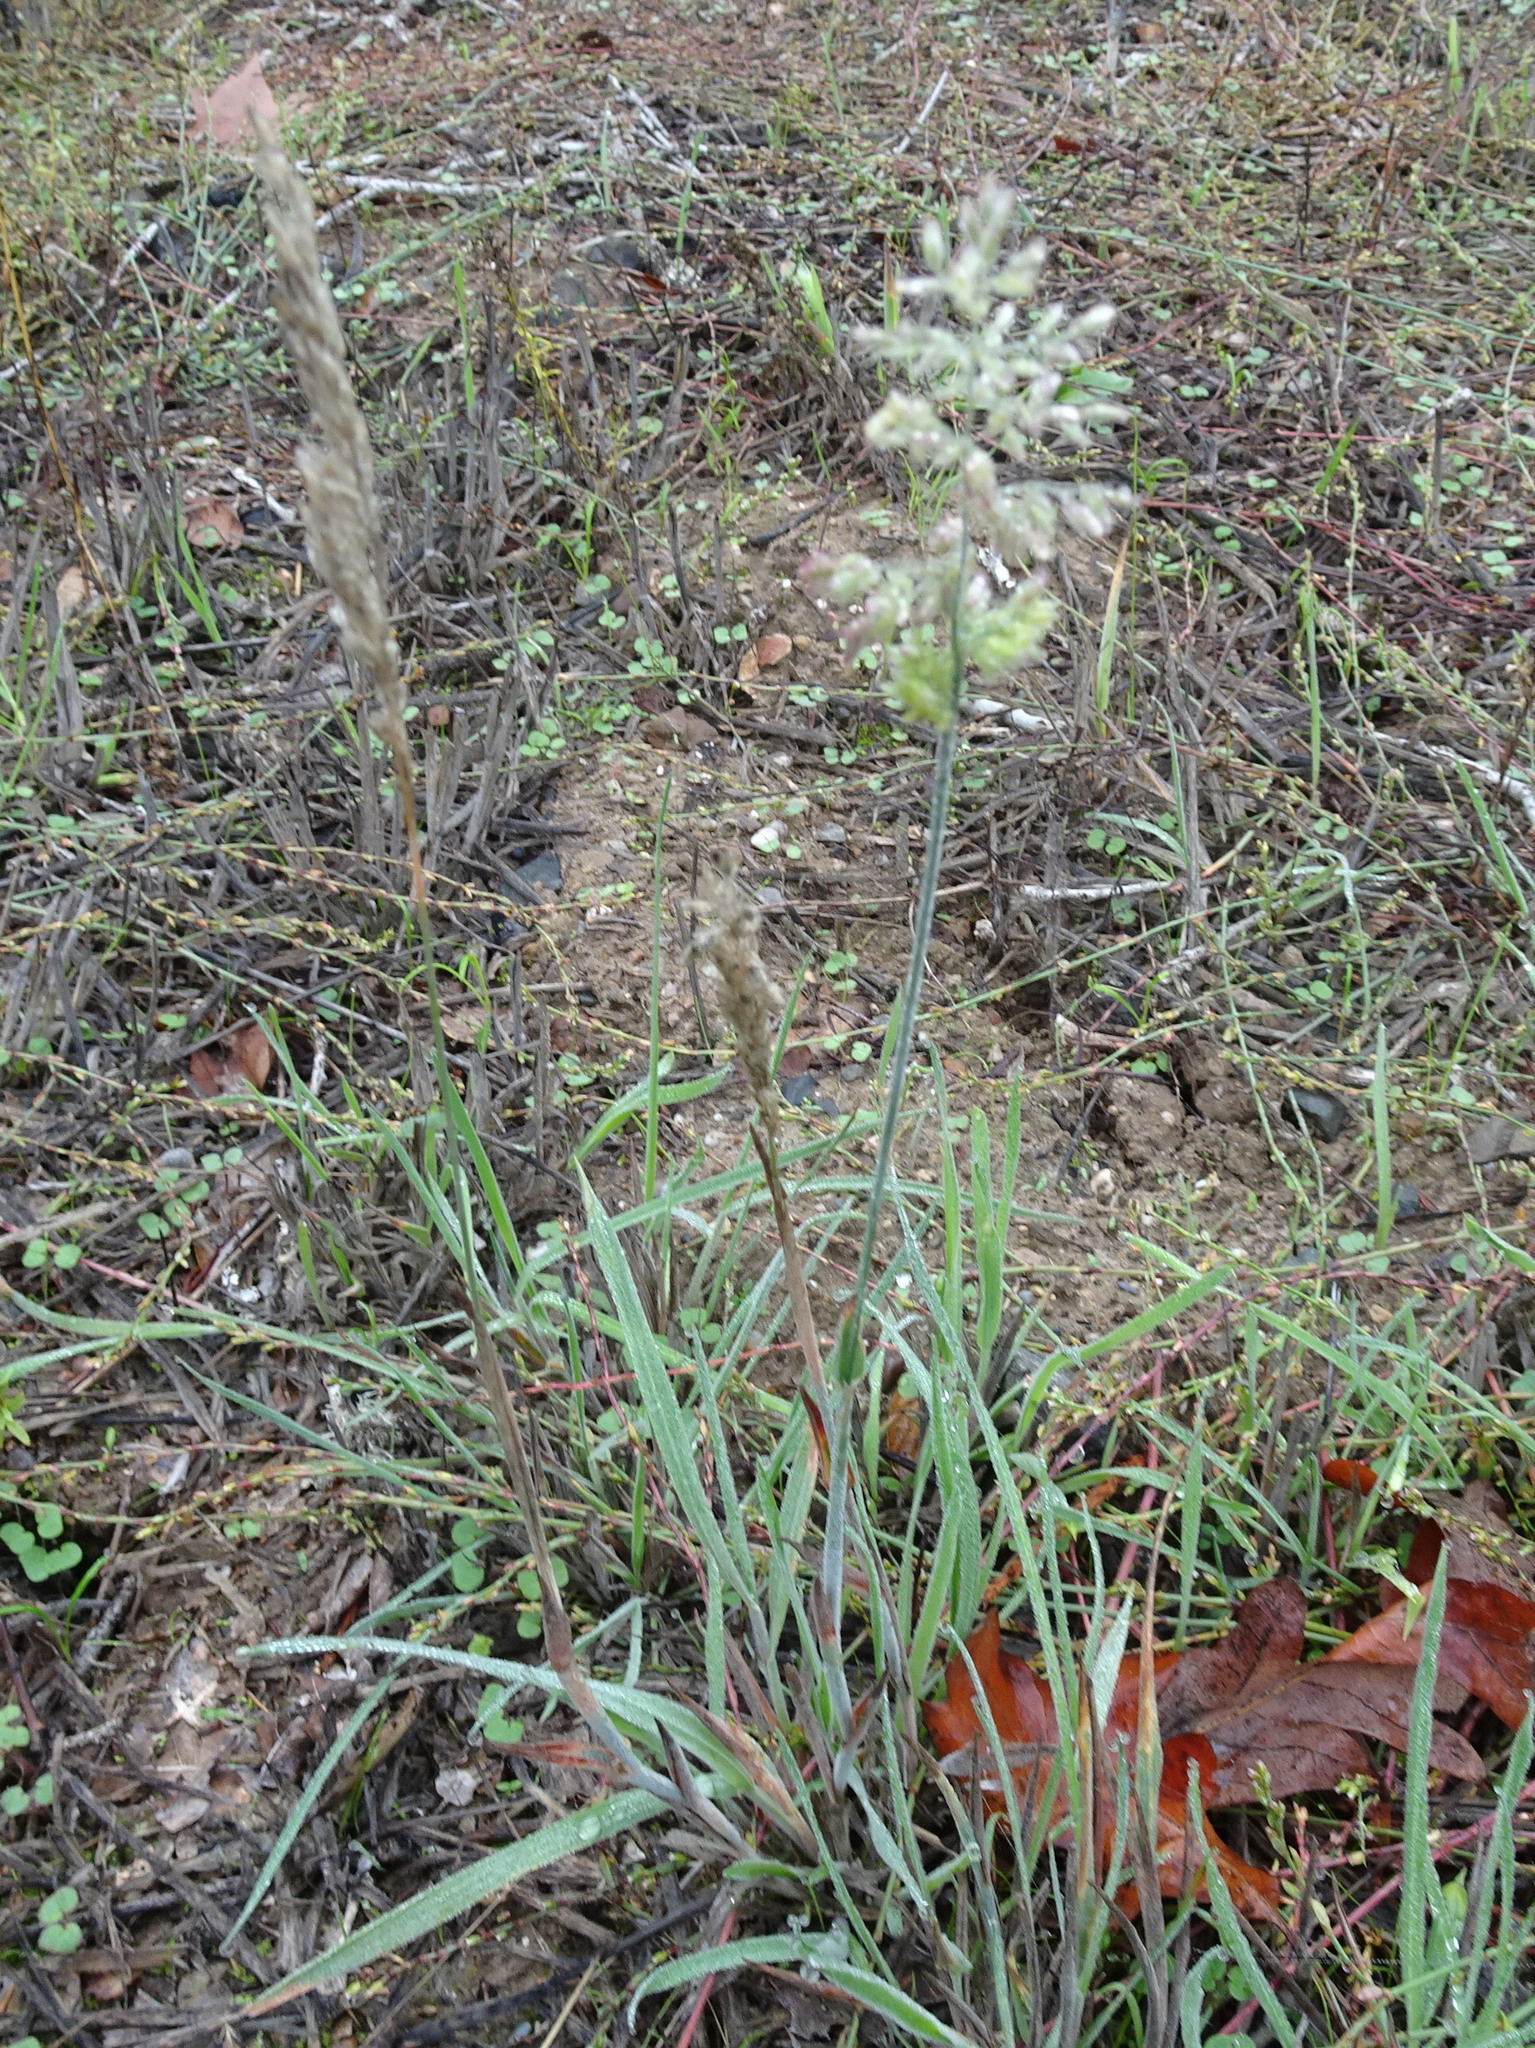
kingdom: Plantae
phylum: Tracheophyta
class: Liliopsida
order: Poales
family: Poaceae
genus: Holcus
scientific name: Holcus lanatus
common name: Yorkshire-fog
